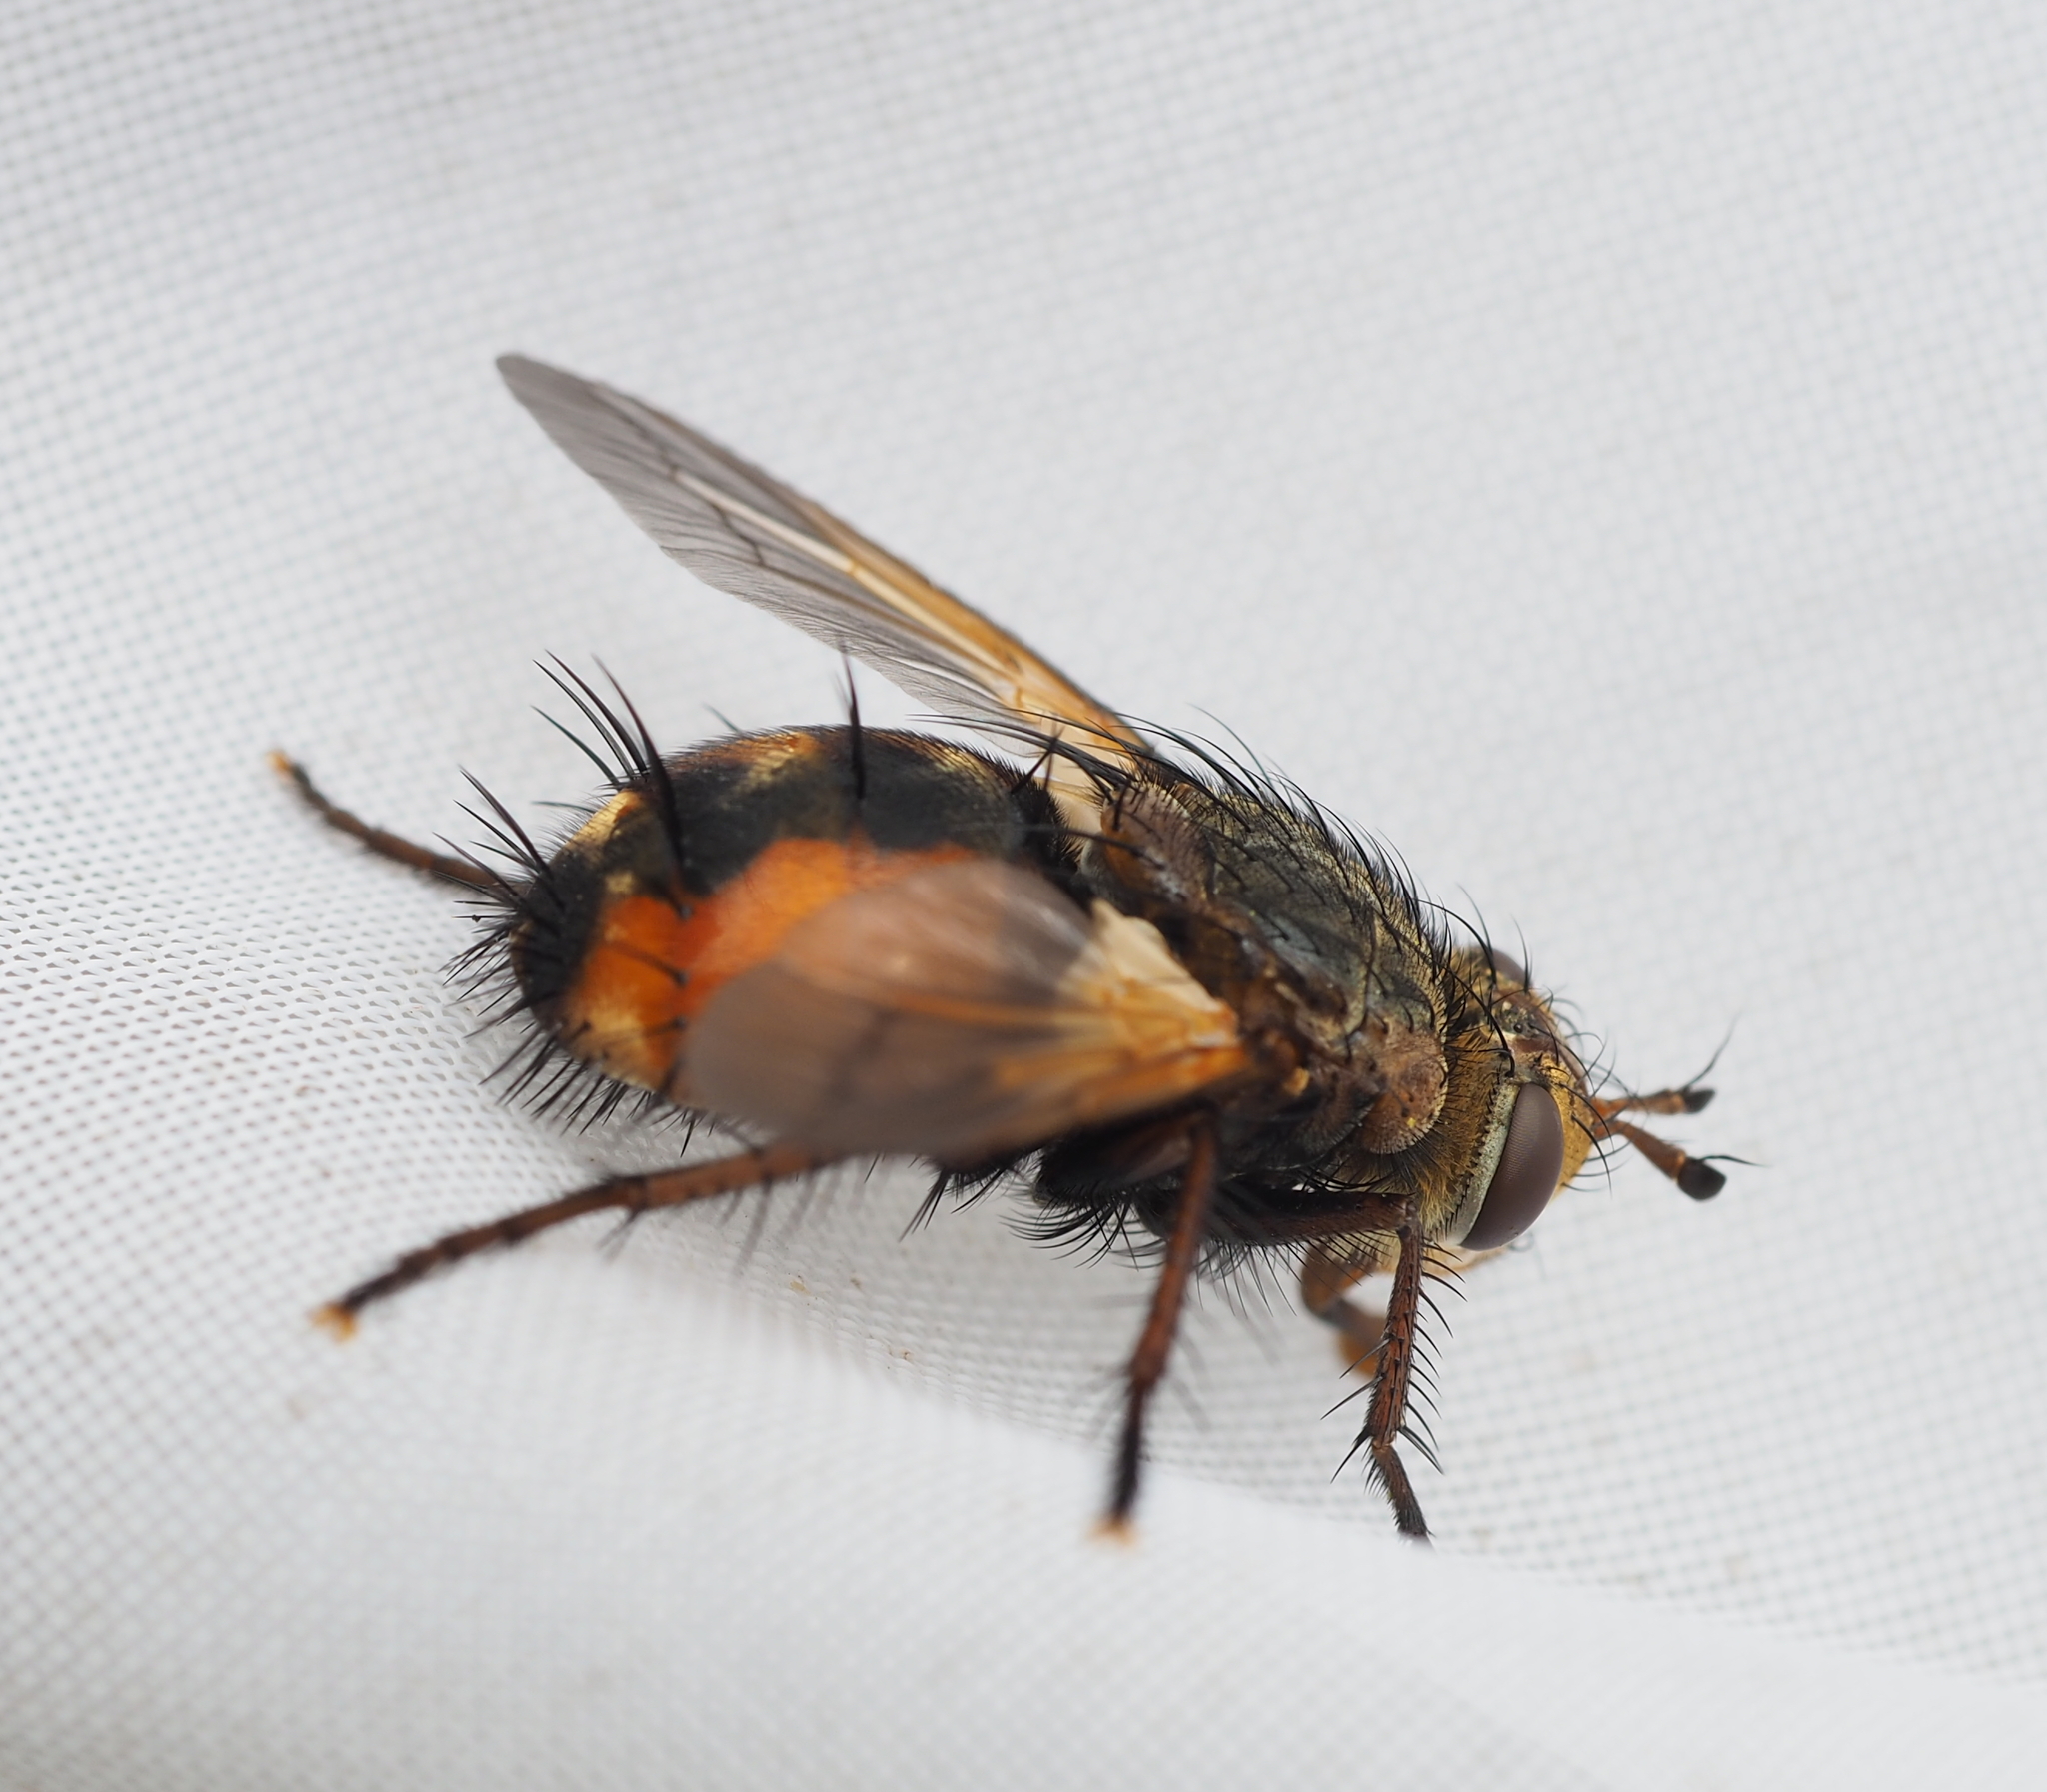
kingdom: Animalia
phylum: Arthropoda
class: Insecta
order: Diptera
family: Tachinidae
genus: Tachina
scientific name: Tachina
